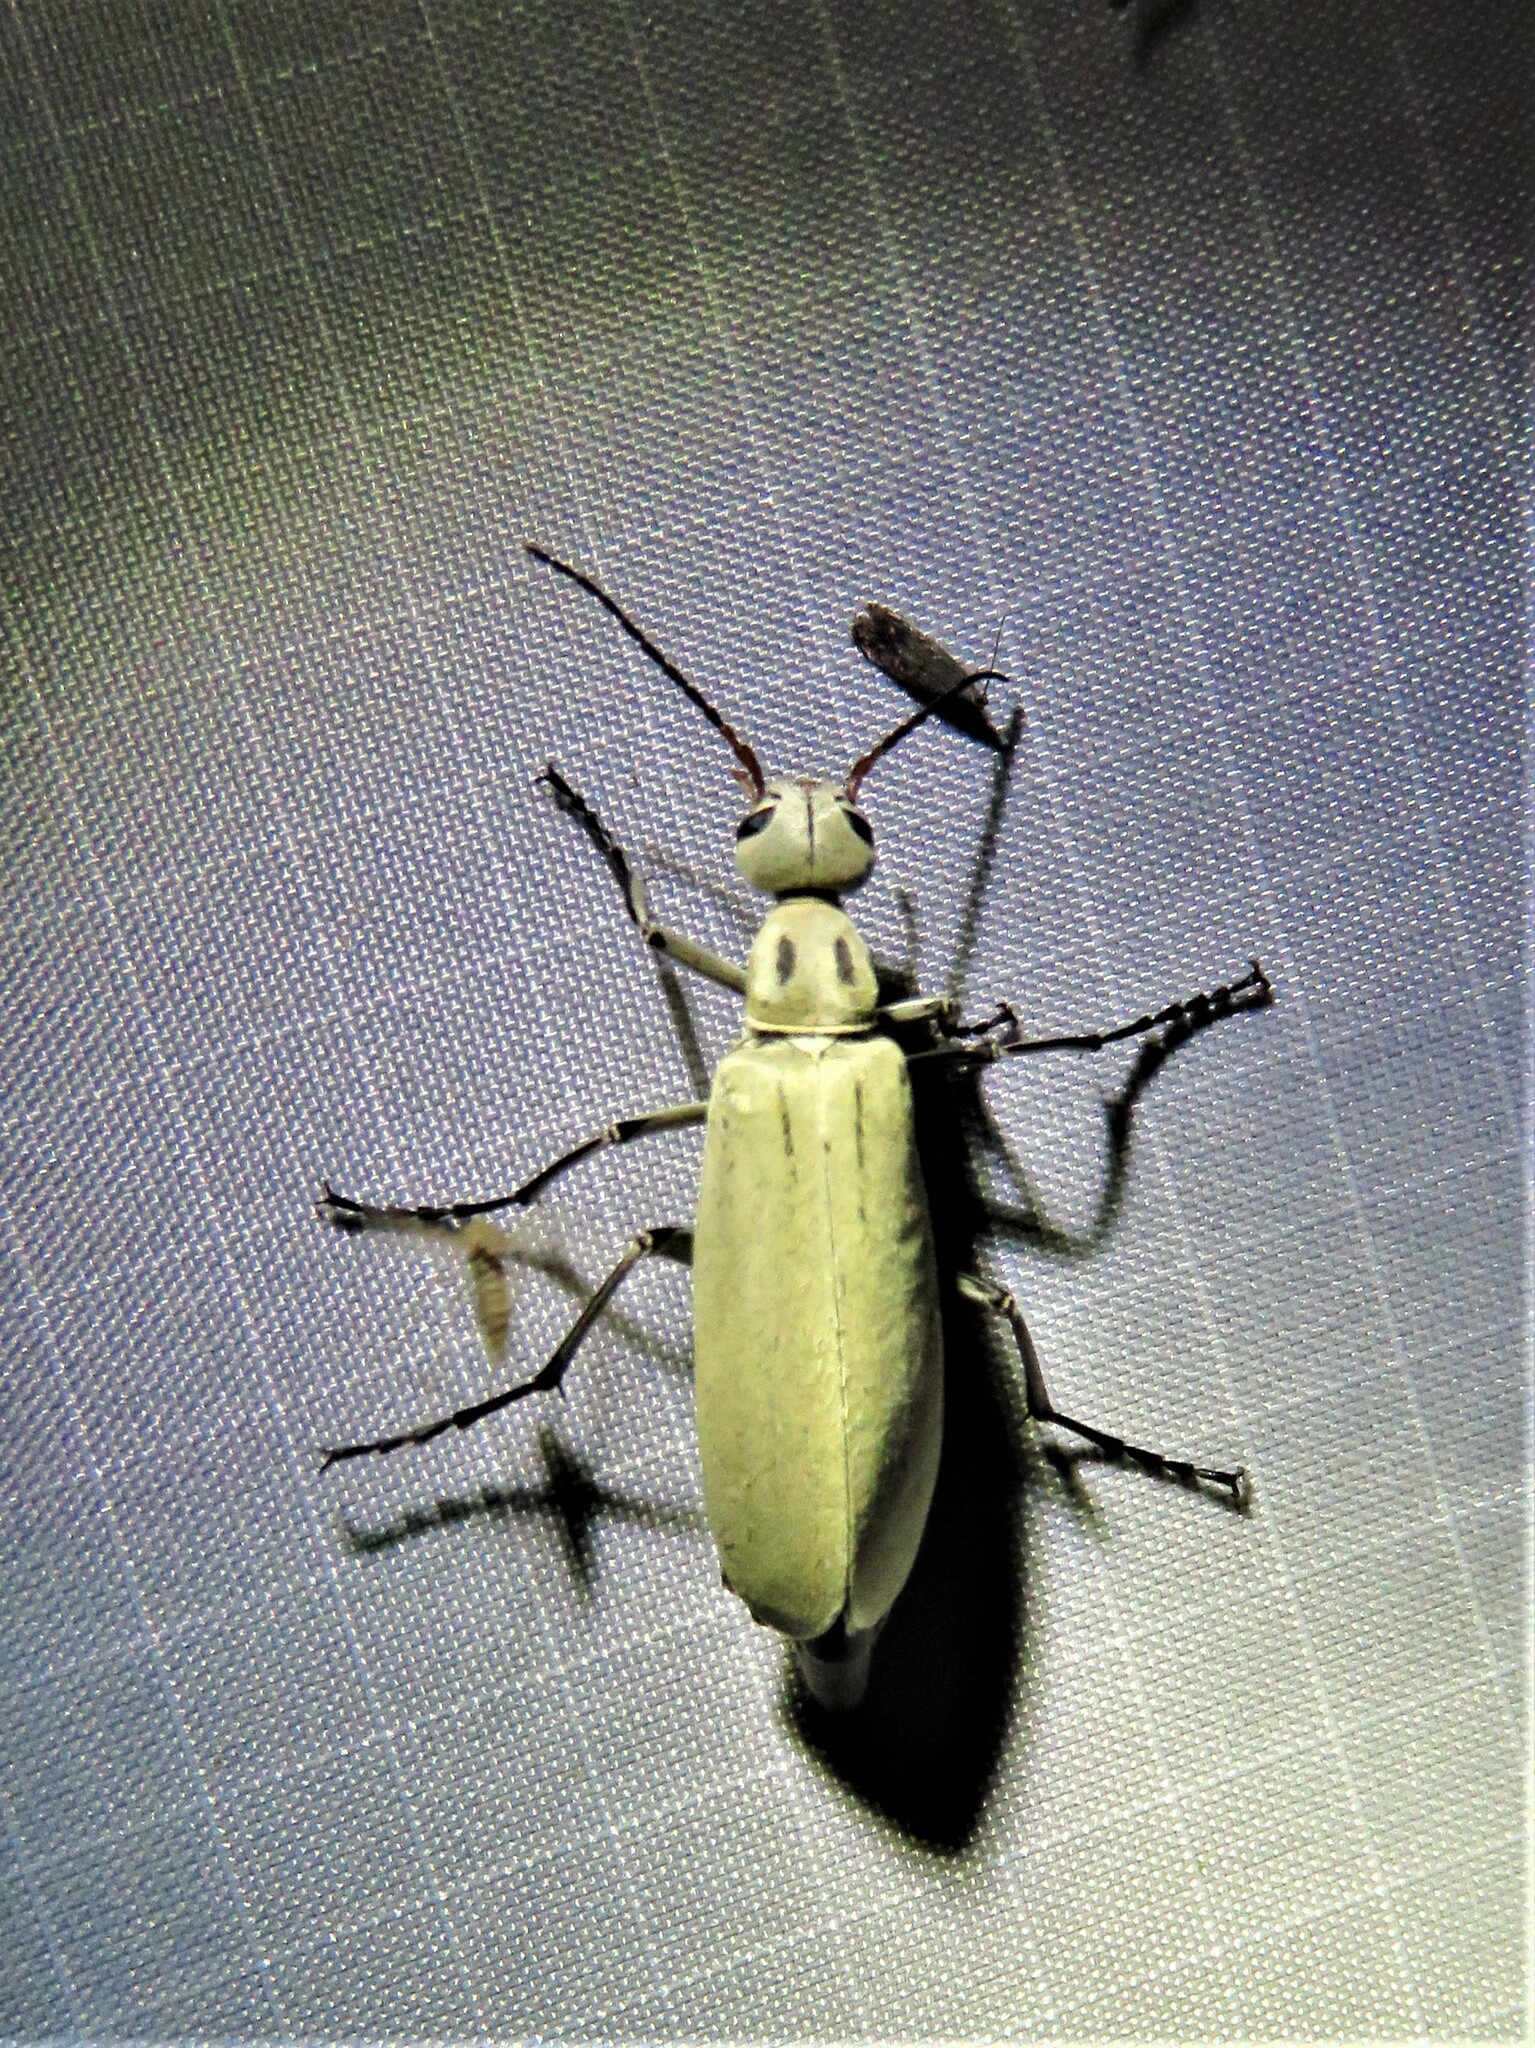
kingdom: Animalia
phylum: Arthropoda
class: Insecta
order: Coleoptera
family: Meloidae
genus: Epicauta
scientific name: Epicauta albida
